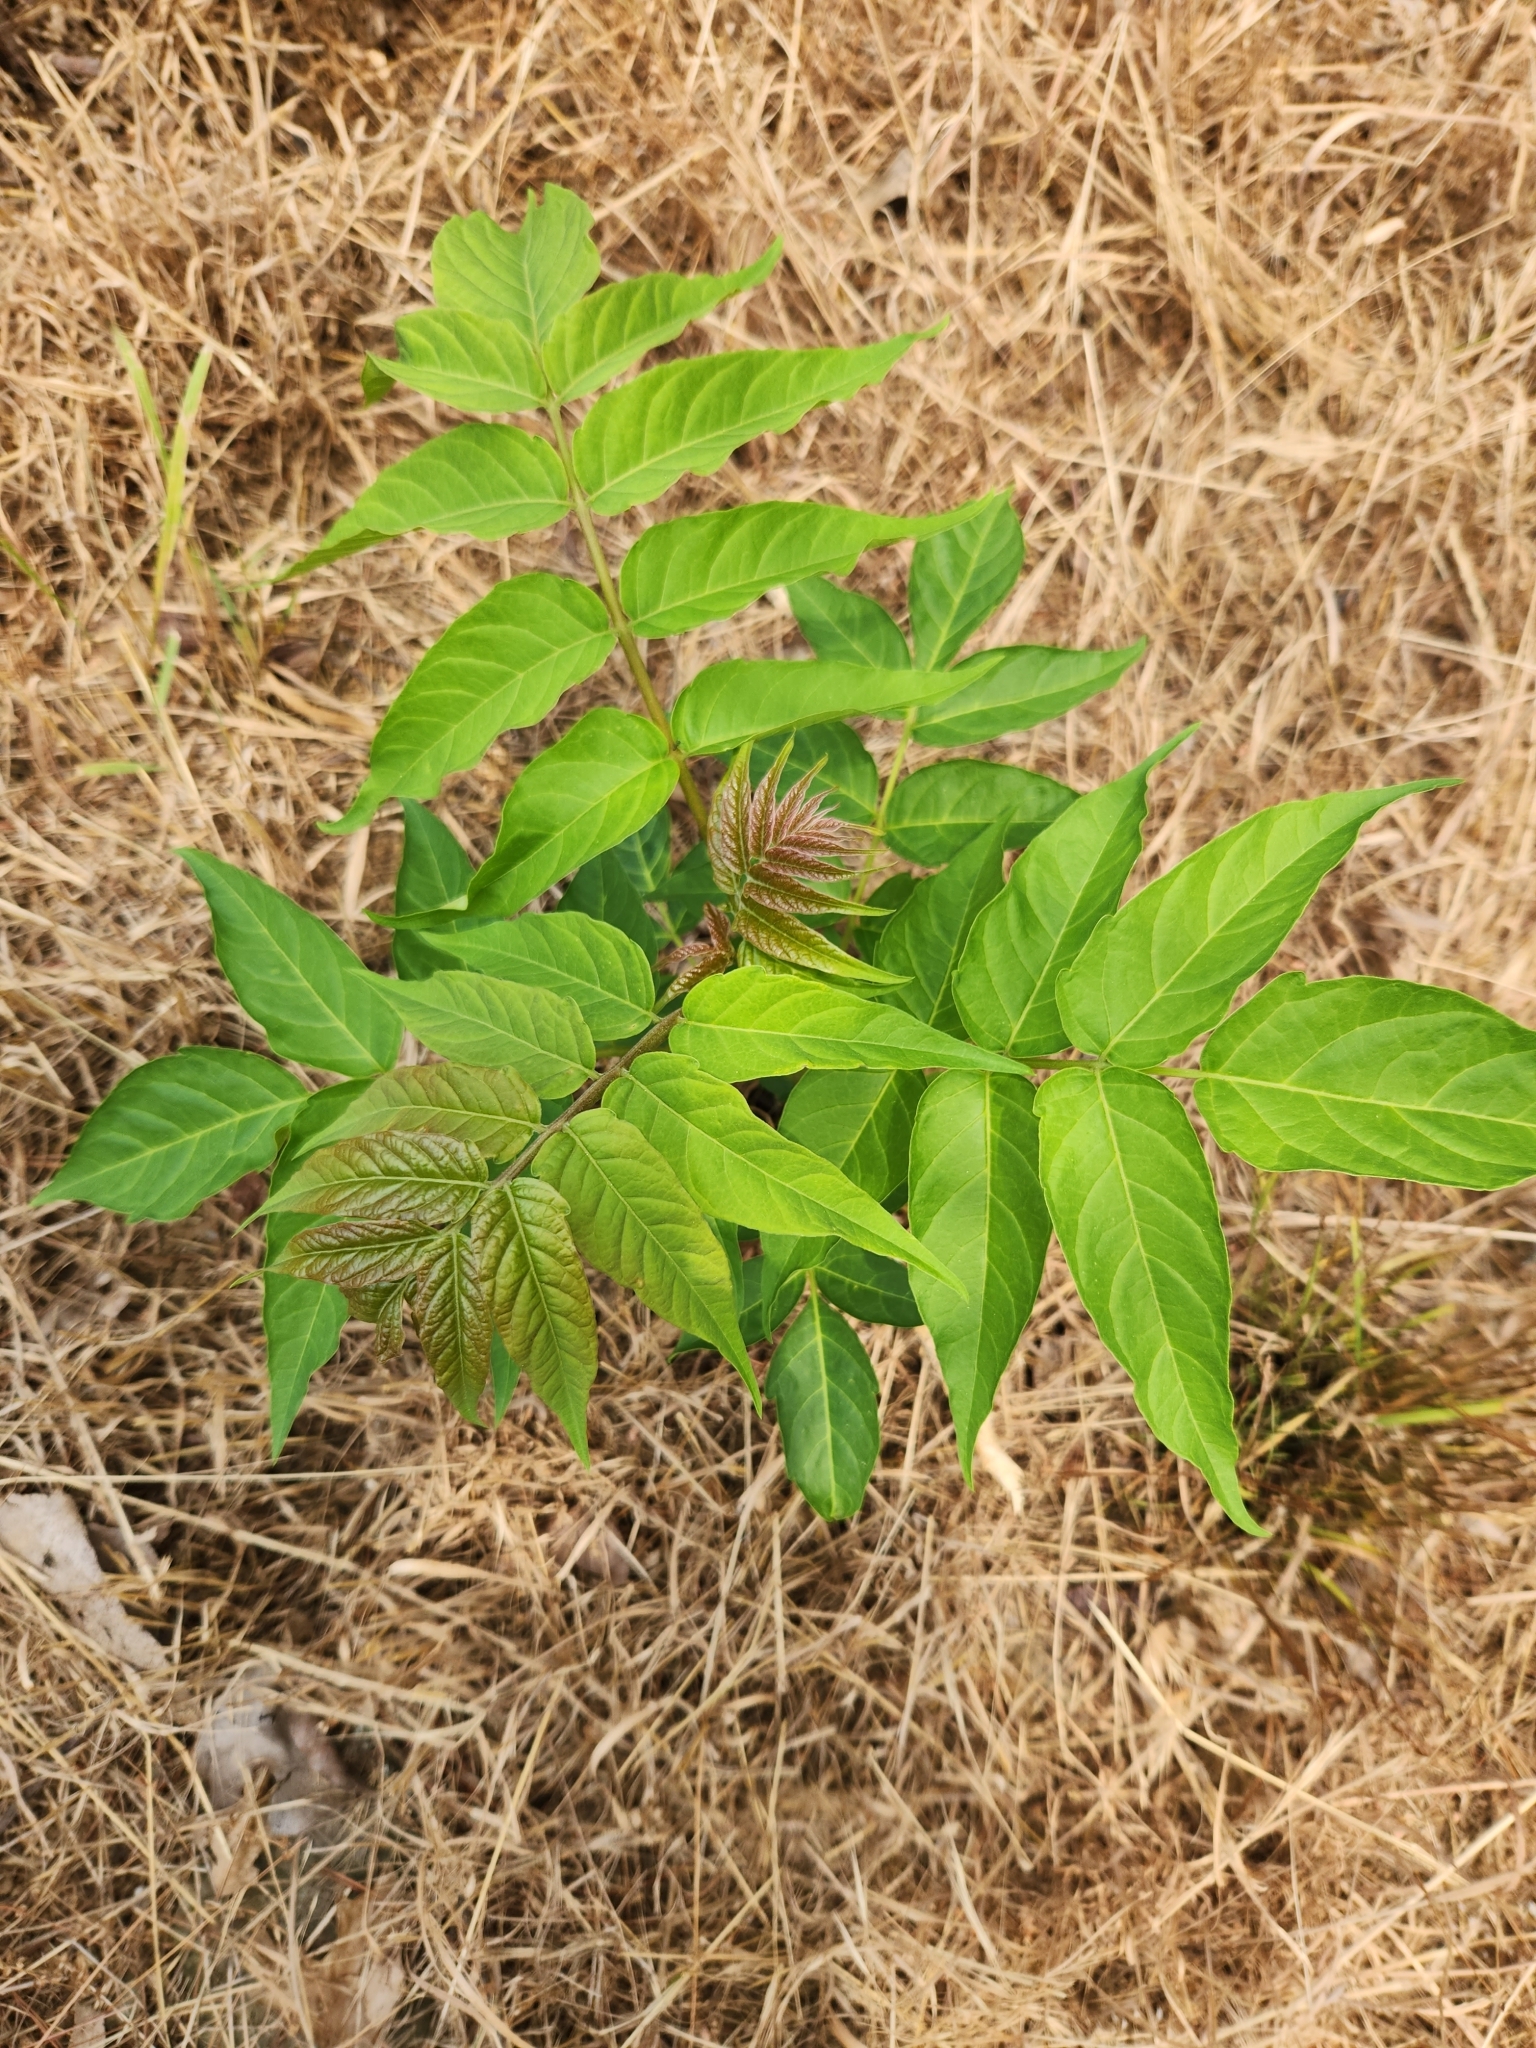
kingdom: Plantae
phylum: Tracheophyta
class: Magnoliopsida
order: Sapindales
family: Simaroubaceae
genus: Ailanthus
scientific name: Ailanthus altissima
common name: Tree-of-heaven
